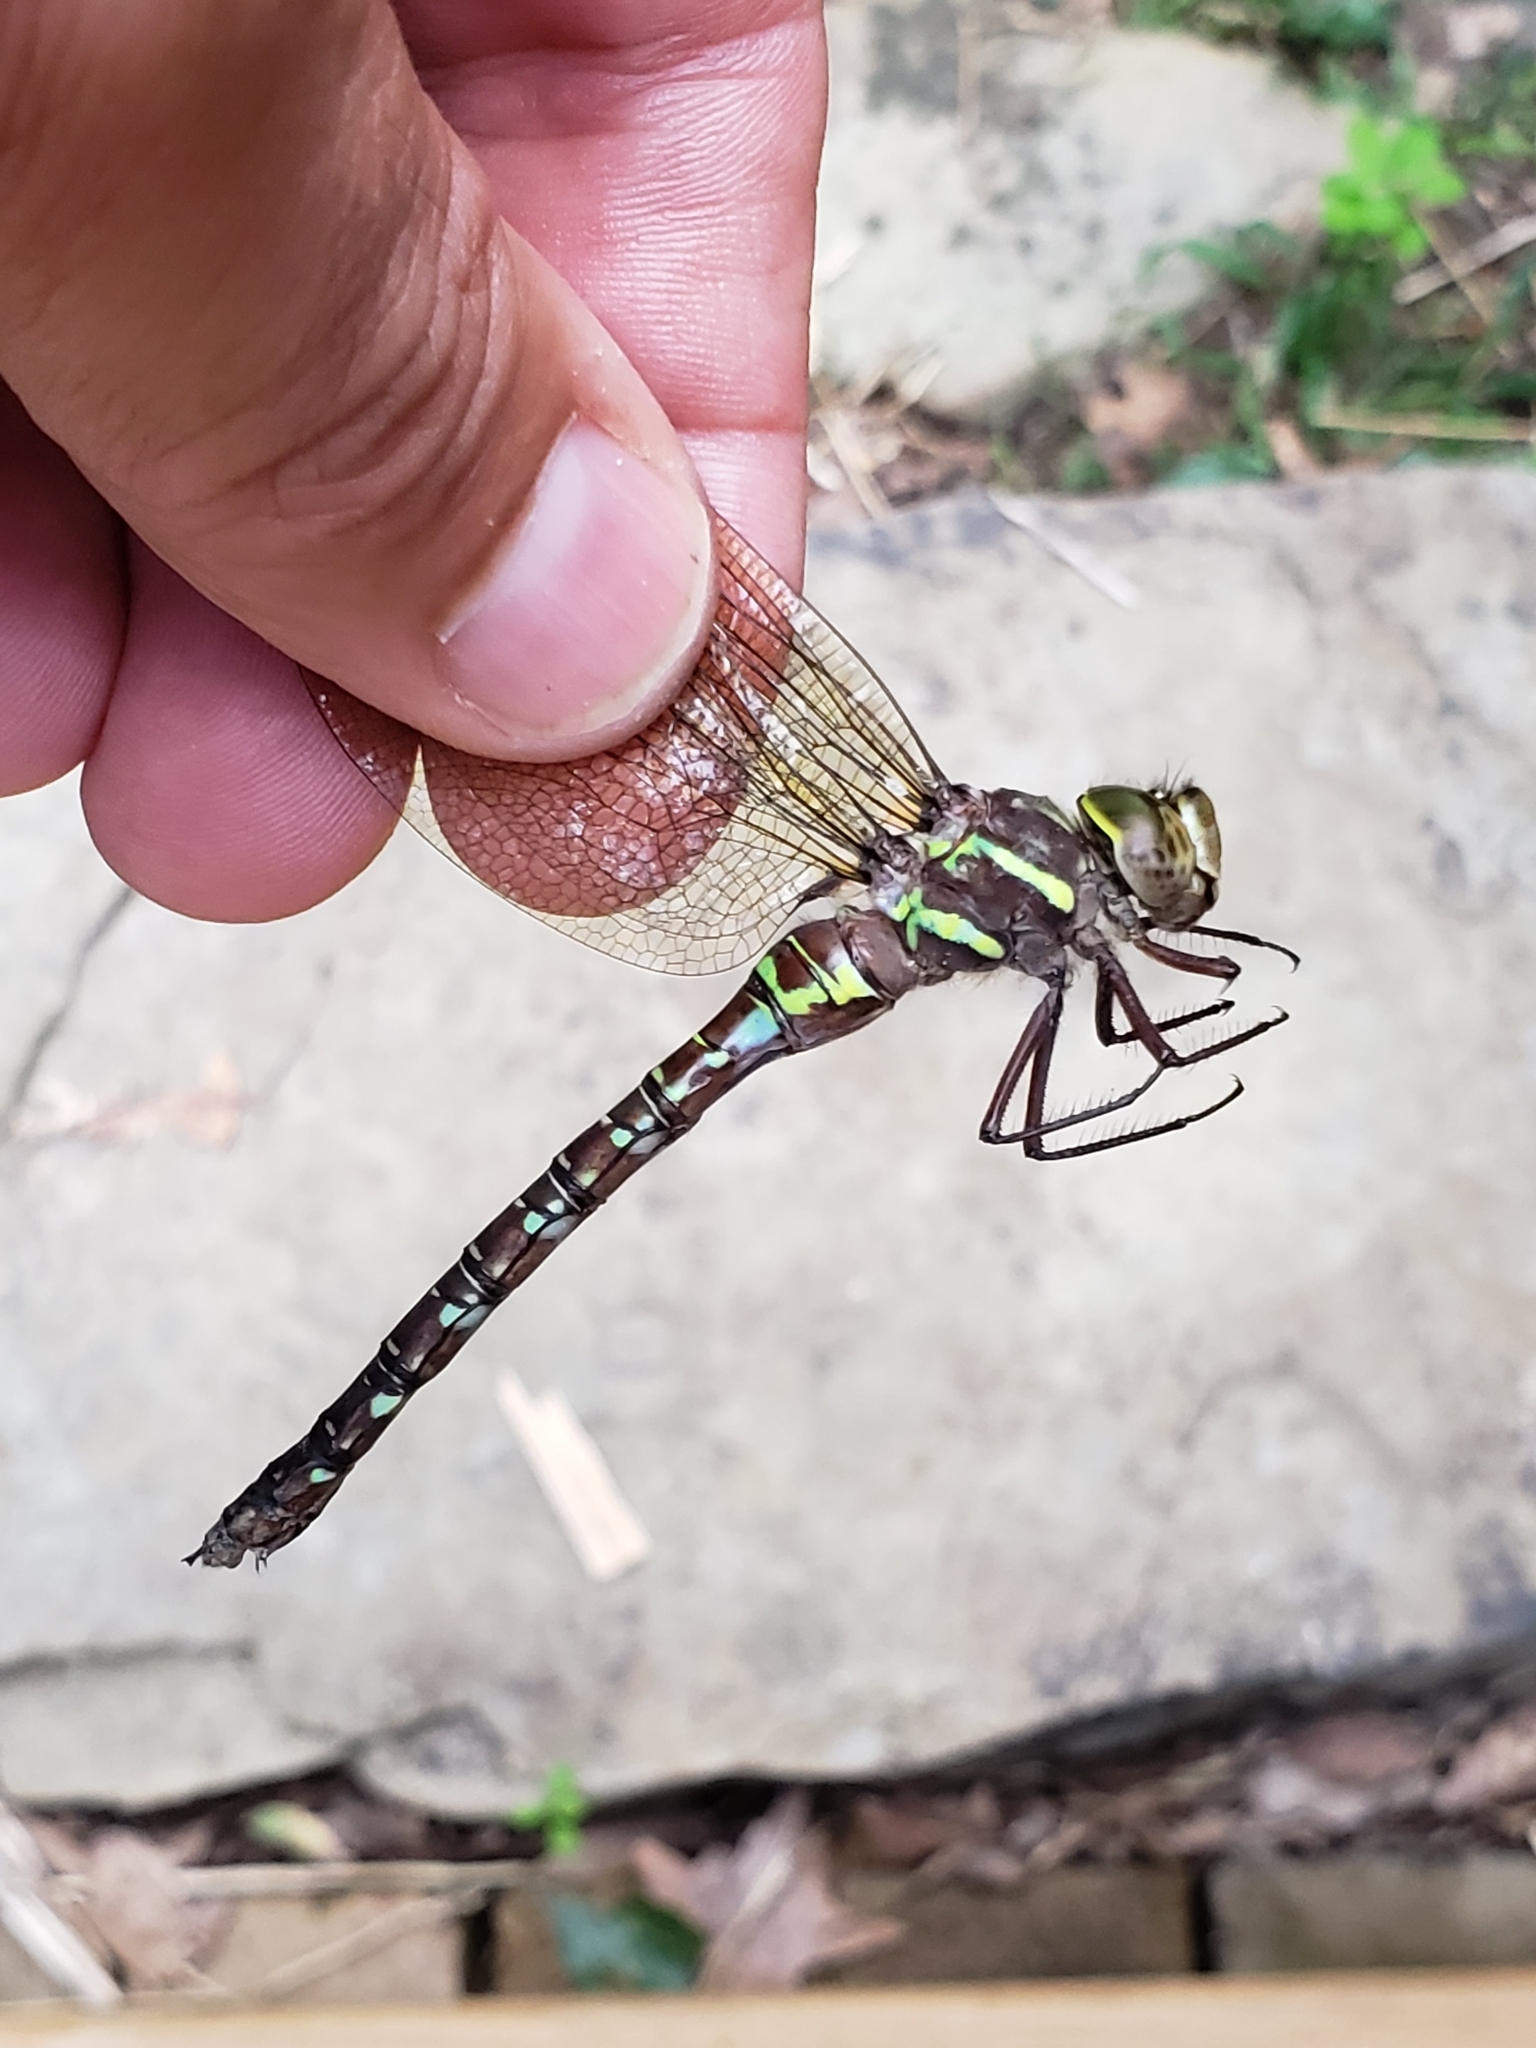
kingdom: Animalia
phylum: Arthropoda
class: Insecta
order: Odonata
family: Aeshnidae
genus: Aeshna
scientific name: Aeshna umbrosa
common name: Shadow darner
